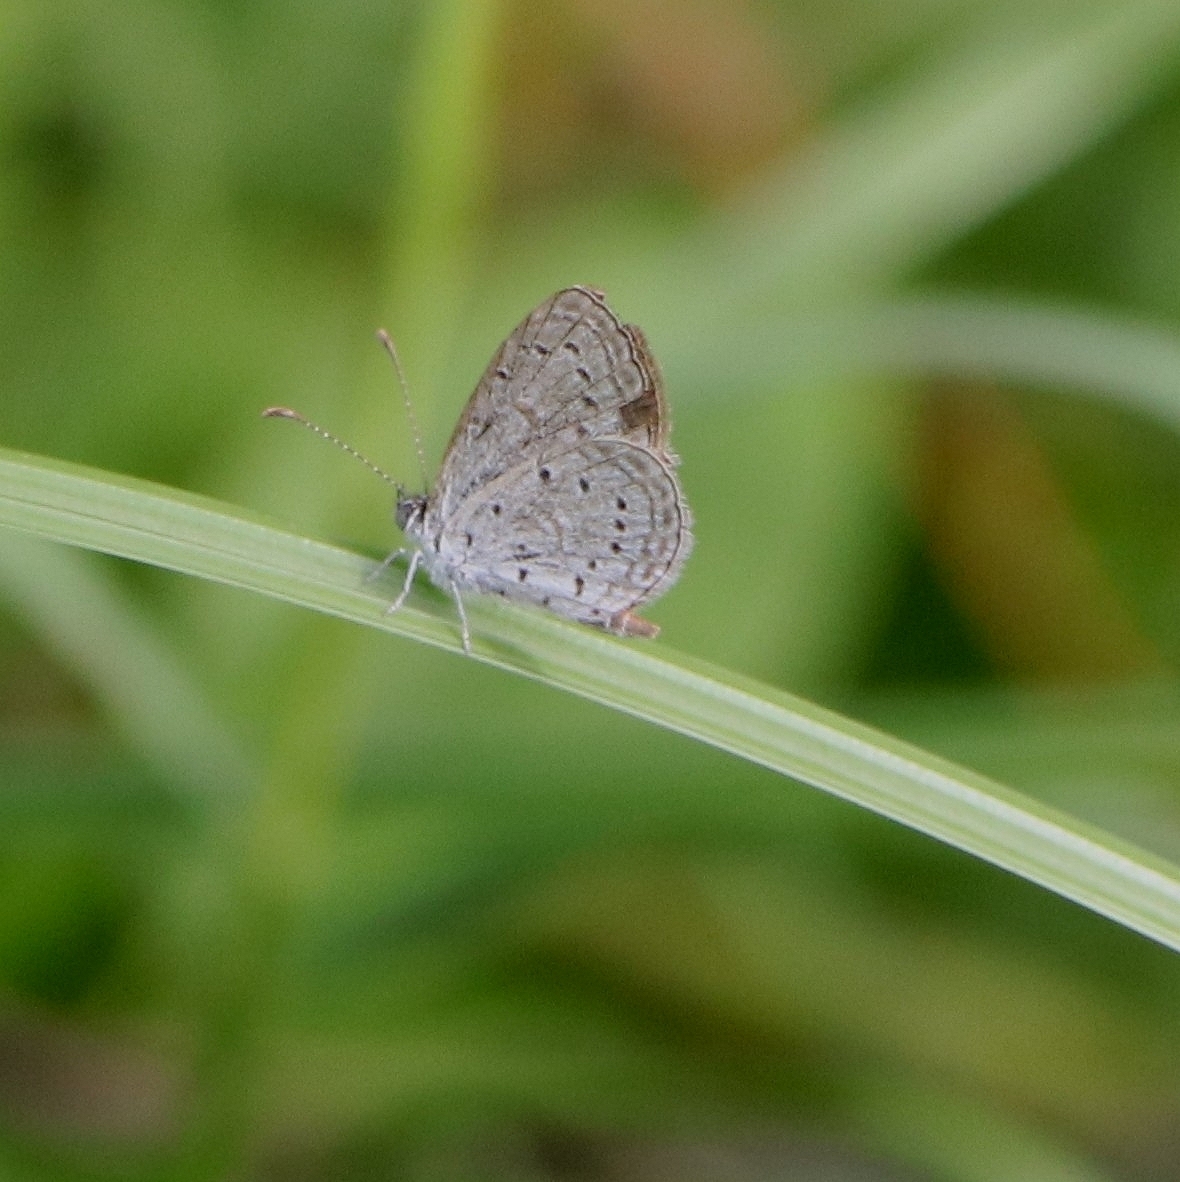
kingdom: Animalia
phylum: Arthropoda
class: Insecta
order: Lepidoptera
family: Lycaenidae
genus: Zizula
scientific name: Zizula hylax
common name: Gaika blue
